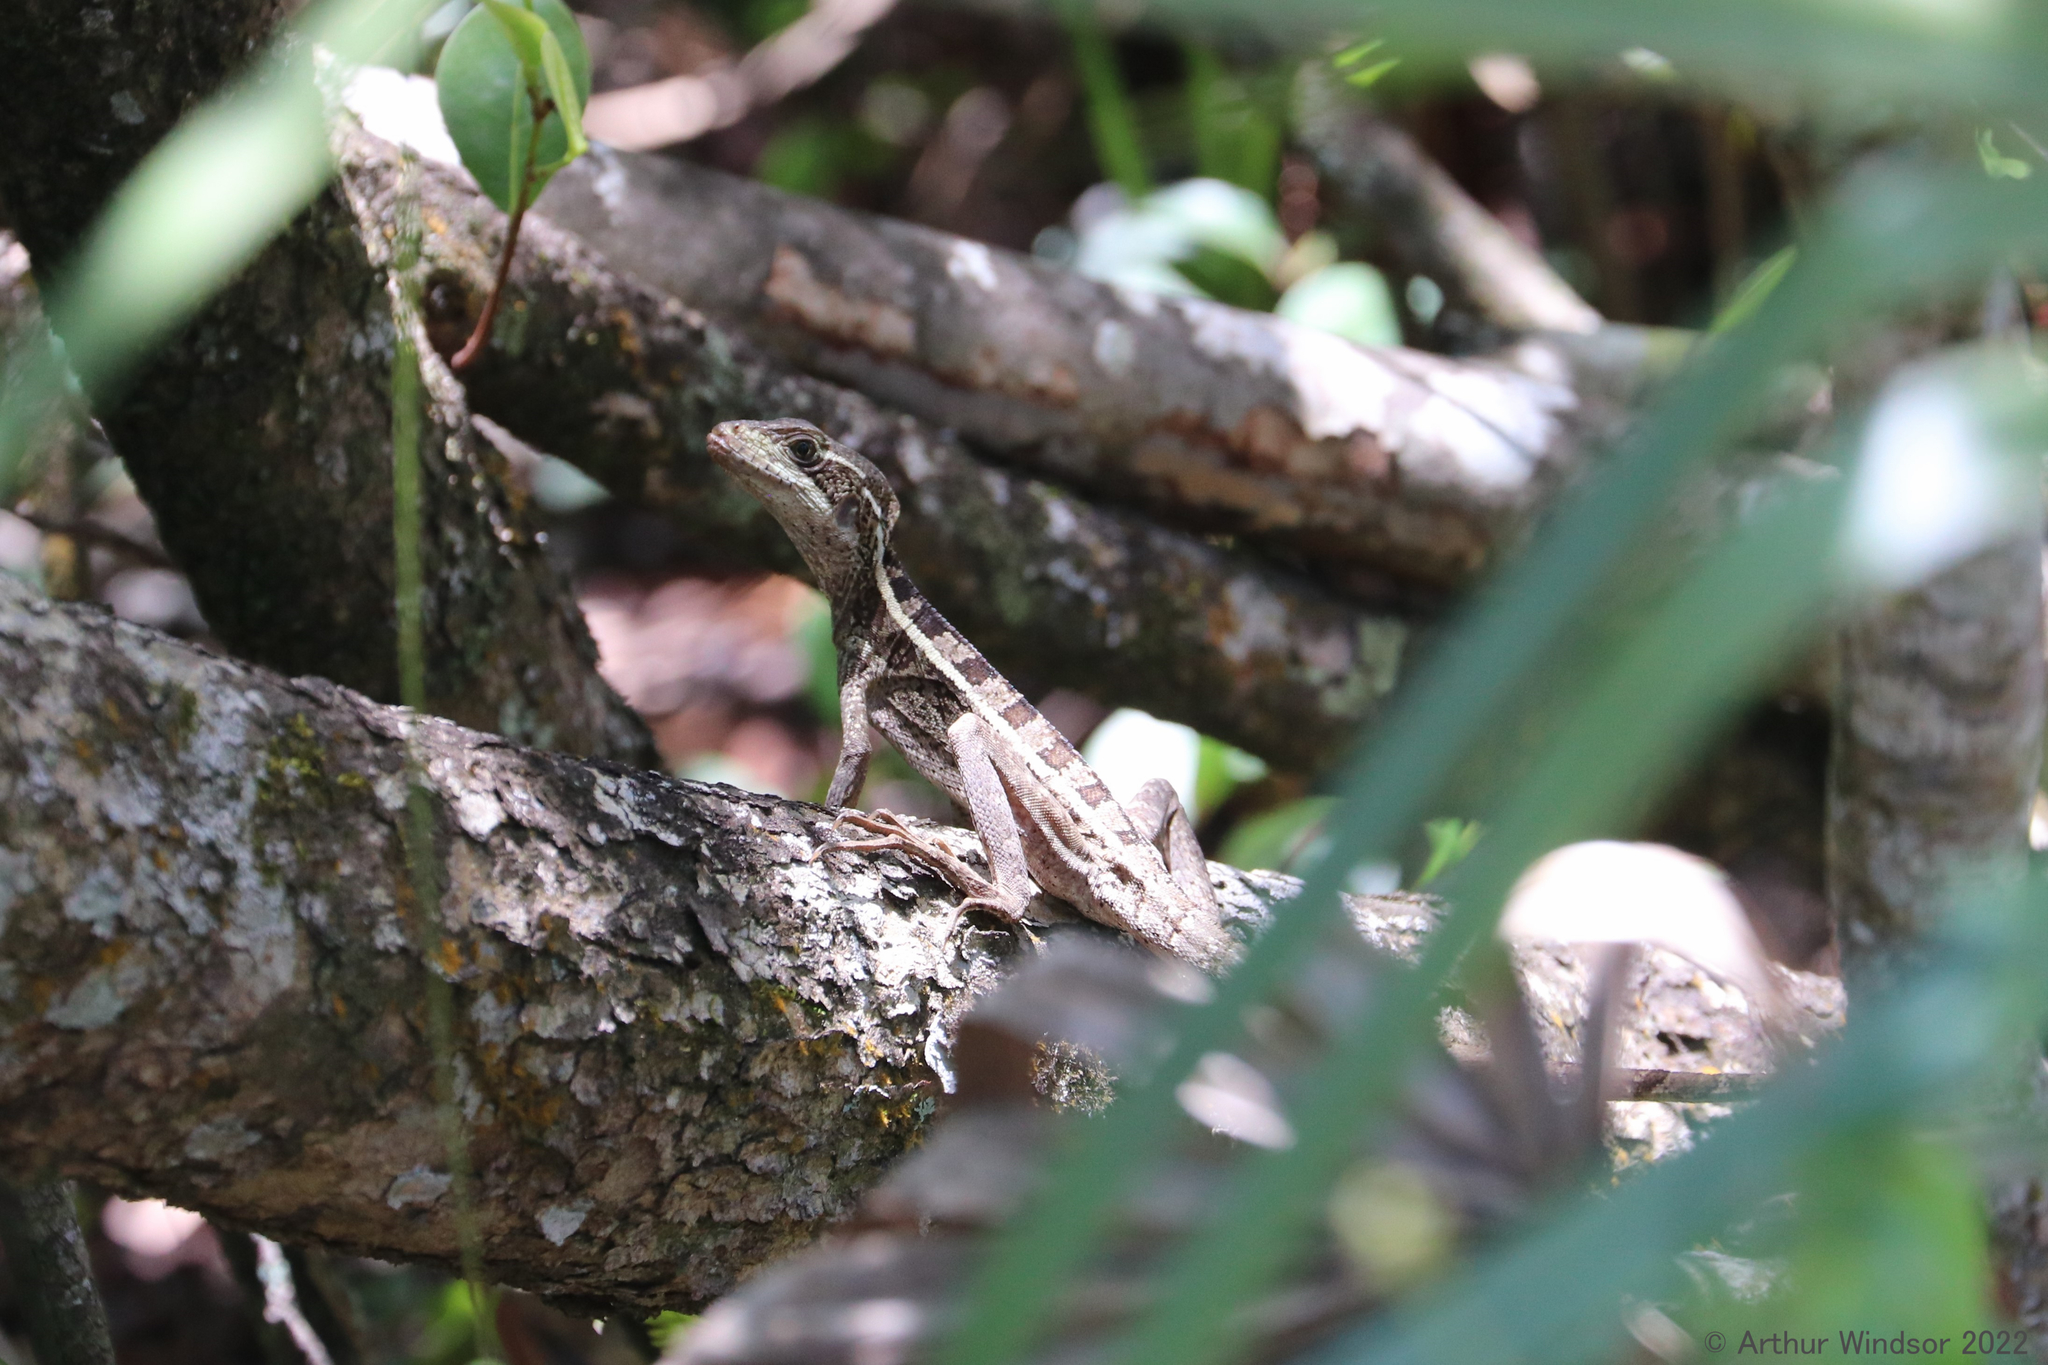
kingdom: Animalia
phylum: Chordata
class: Squamata
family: Corytophanidae
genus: Basiliscus
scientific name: Basiliscus vittatus
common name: Brown basilisk
